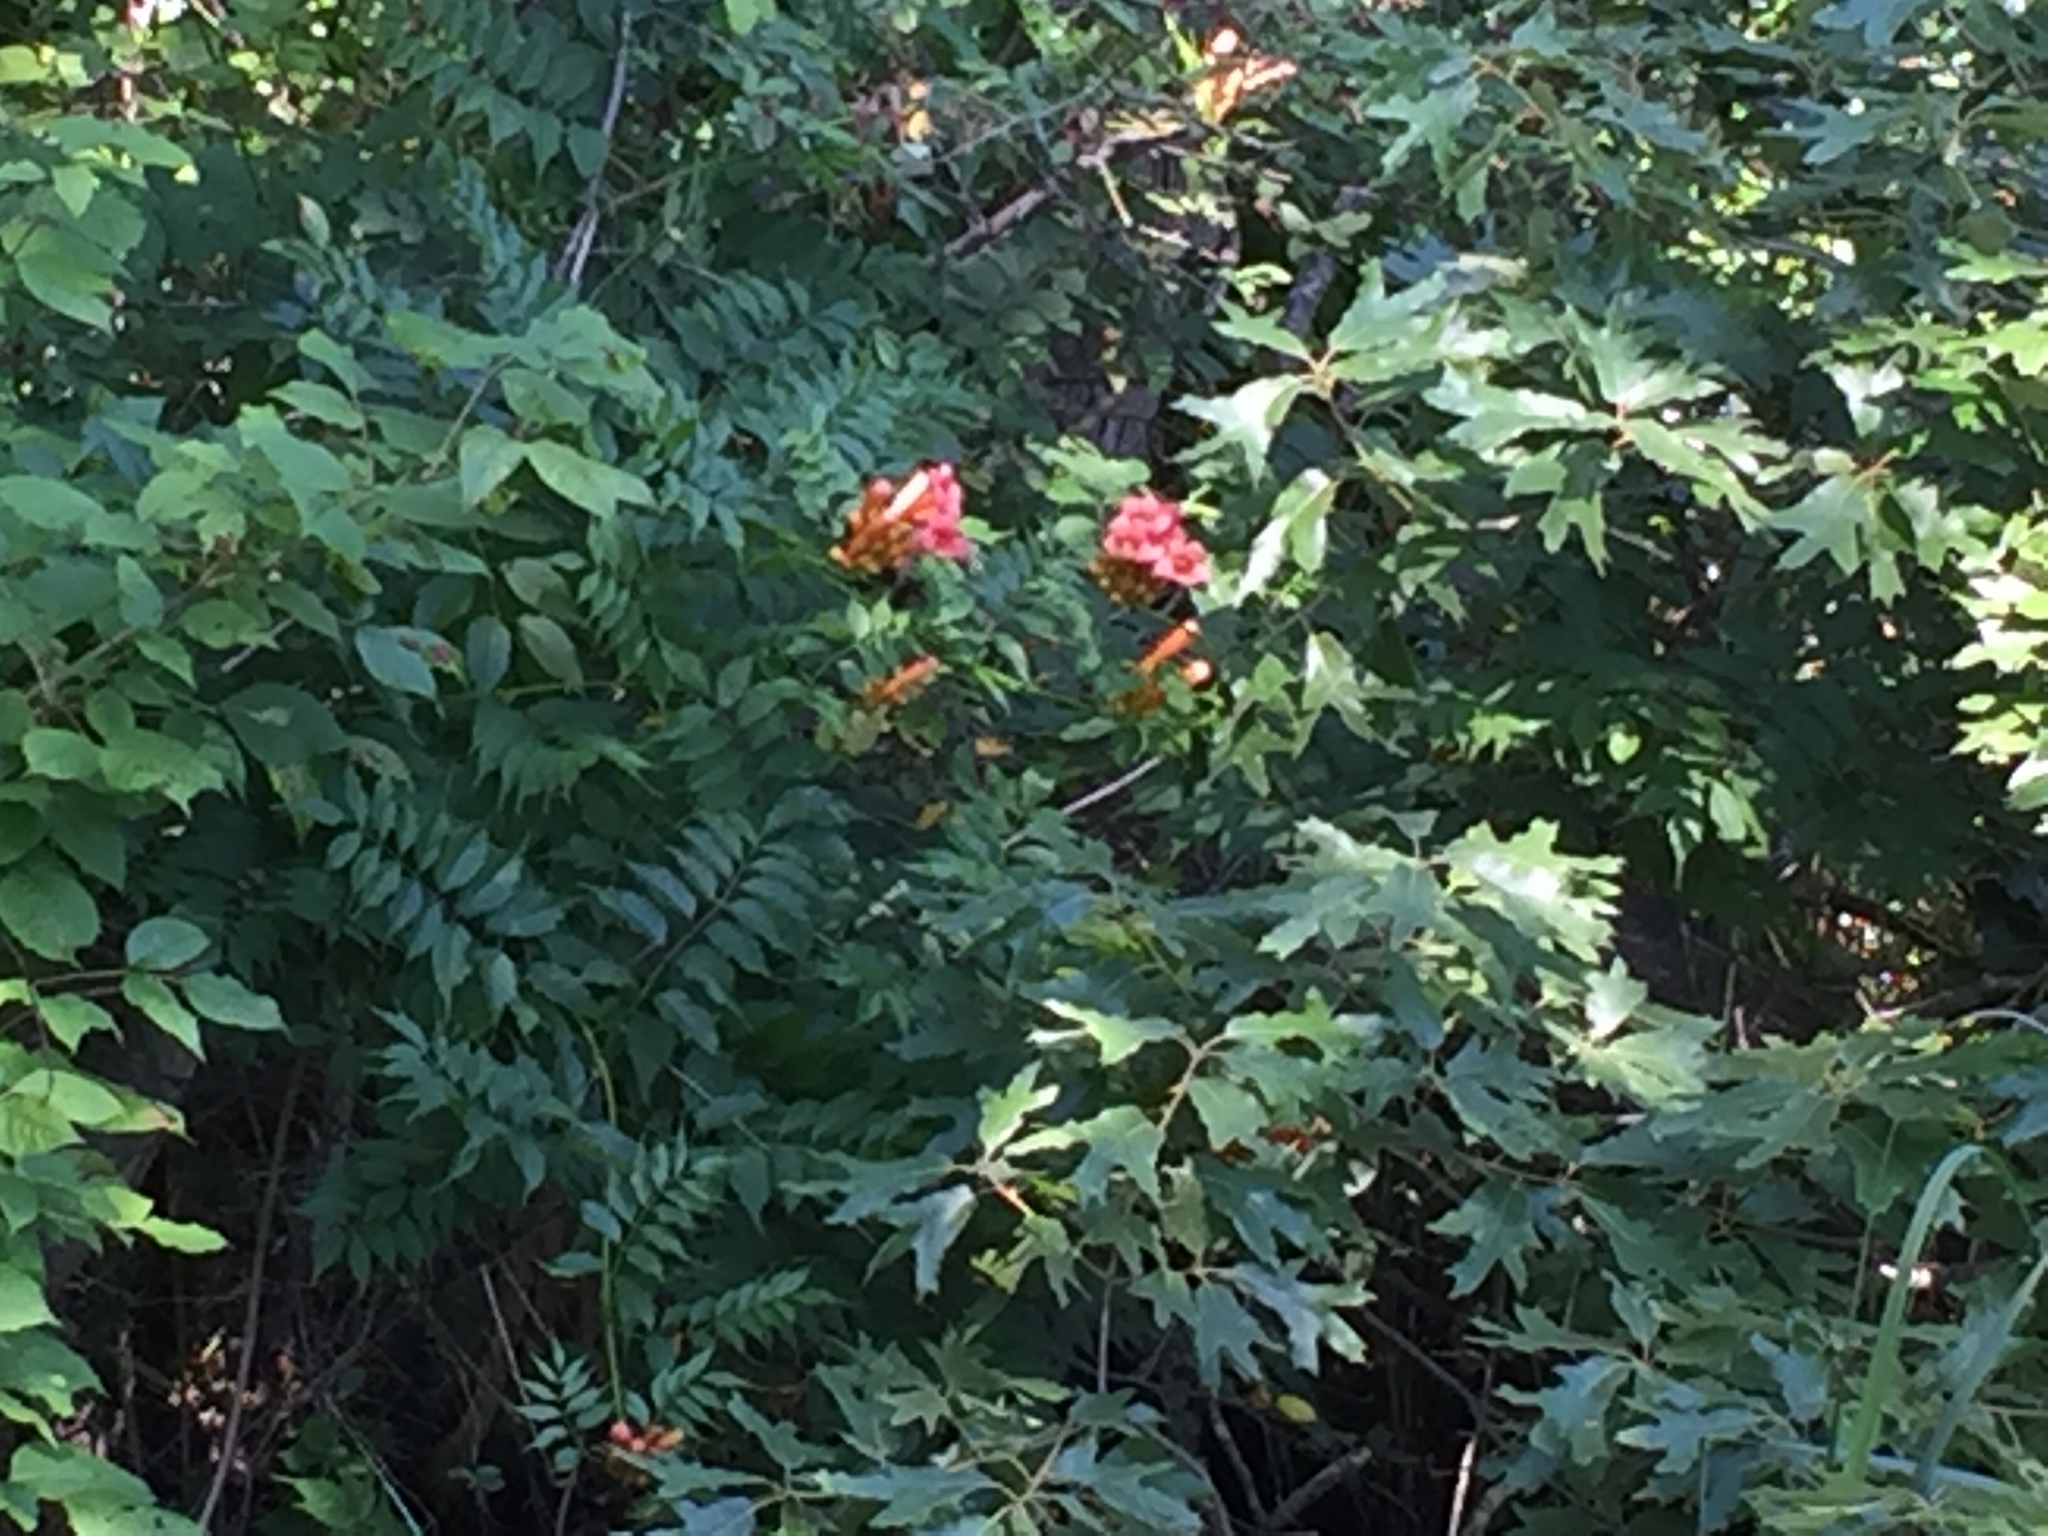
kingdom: Plantae
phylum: Tracheophyta
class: Magnoliopsida
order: Lamiales
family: Bignoniaceae
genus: Campsis
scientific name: Campsis radicans
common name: Trumpet-creeper
